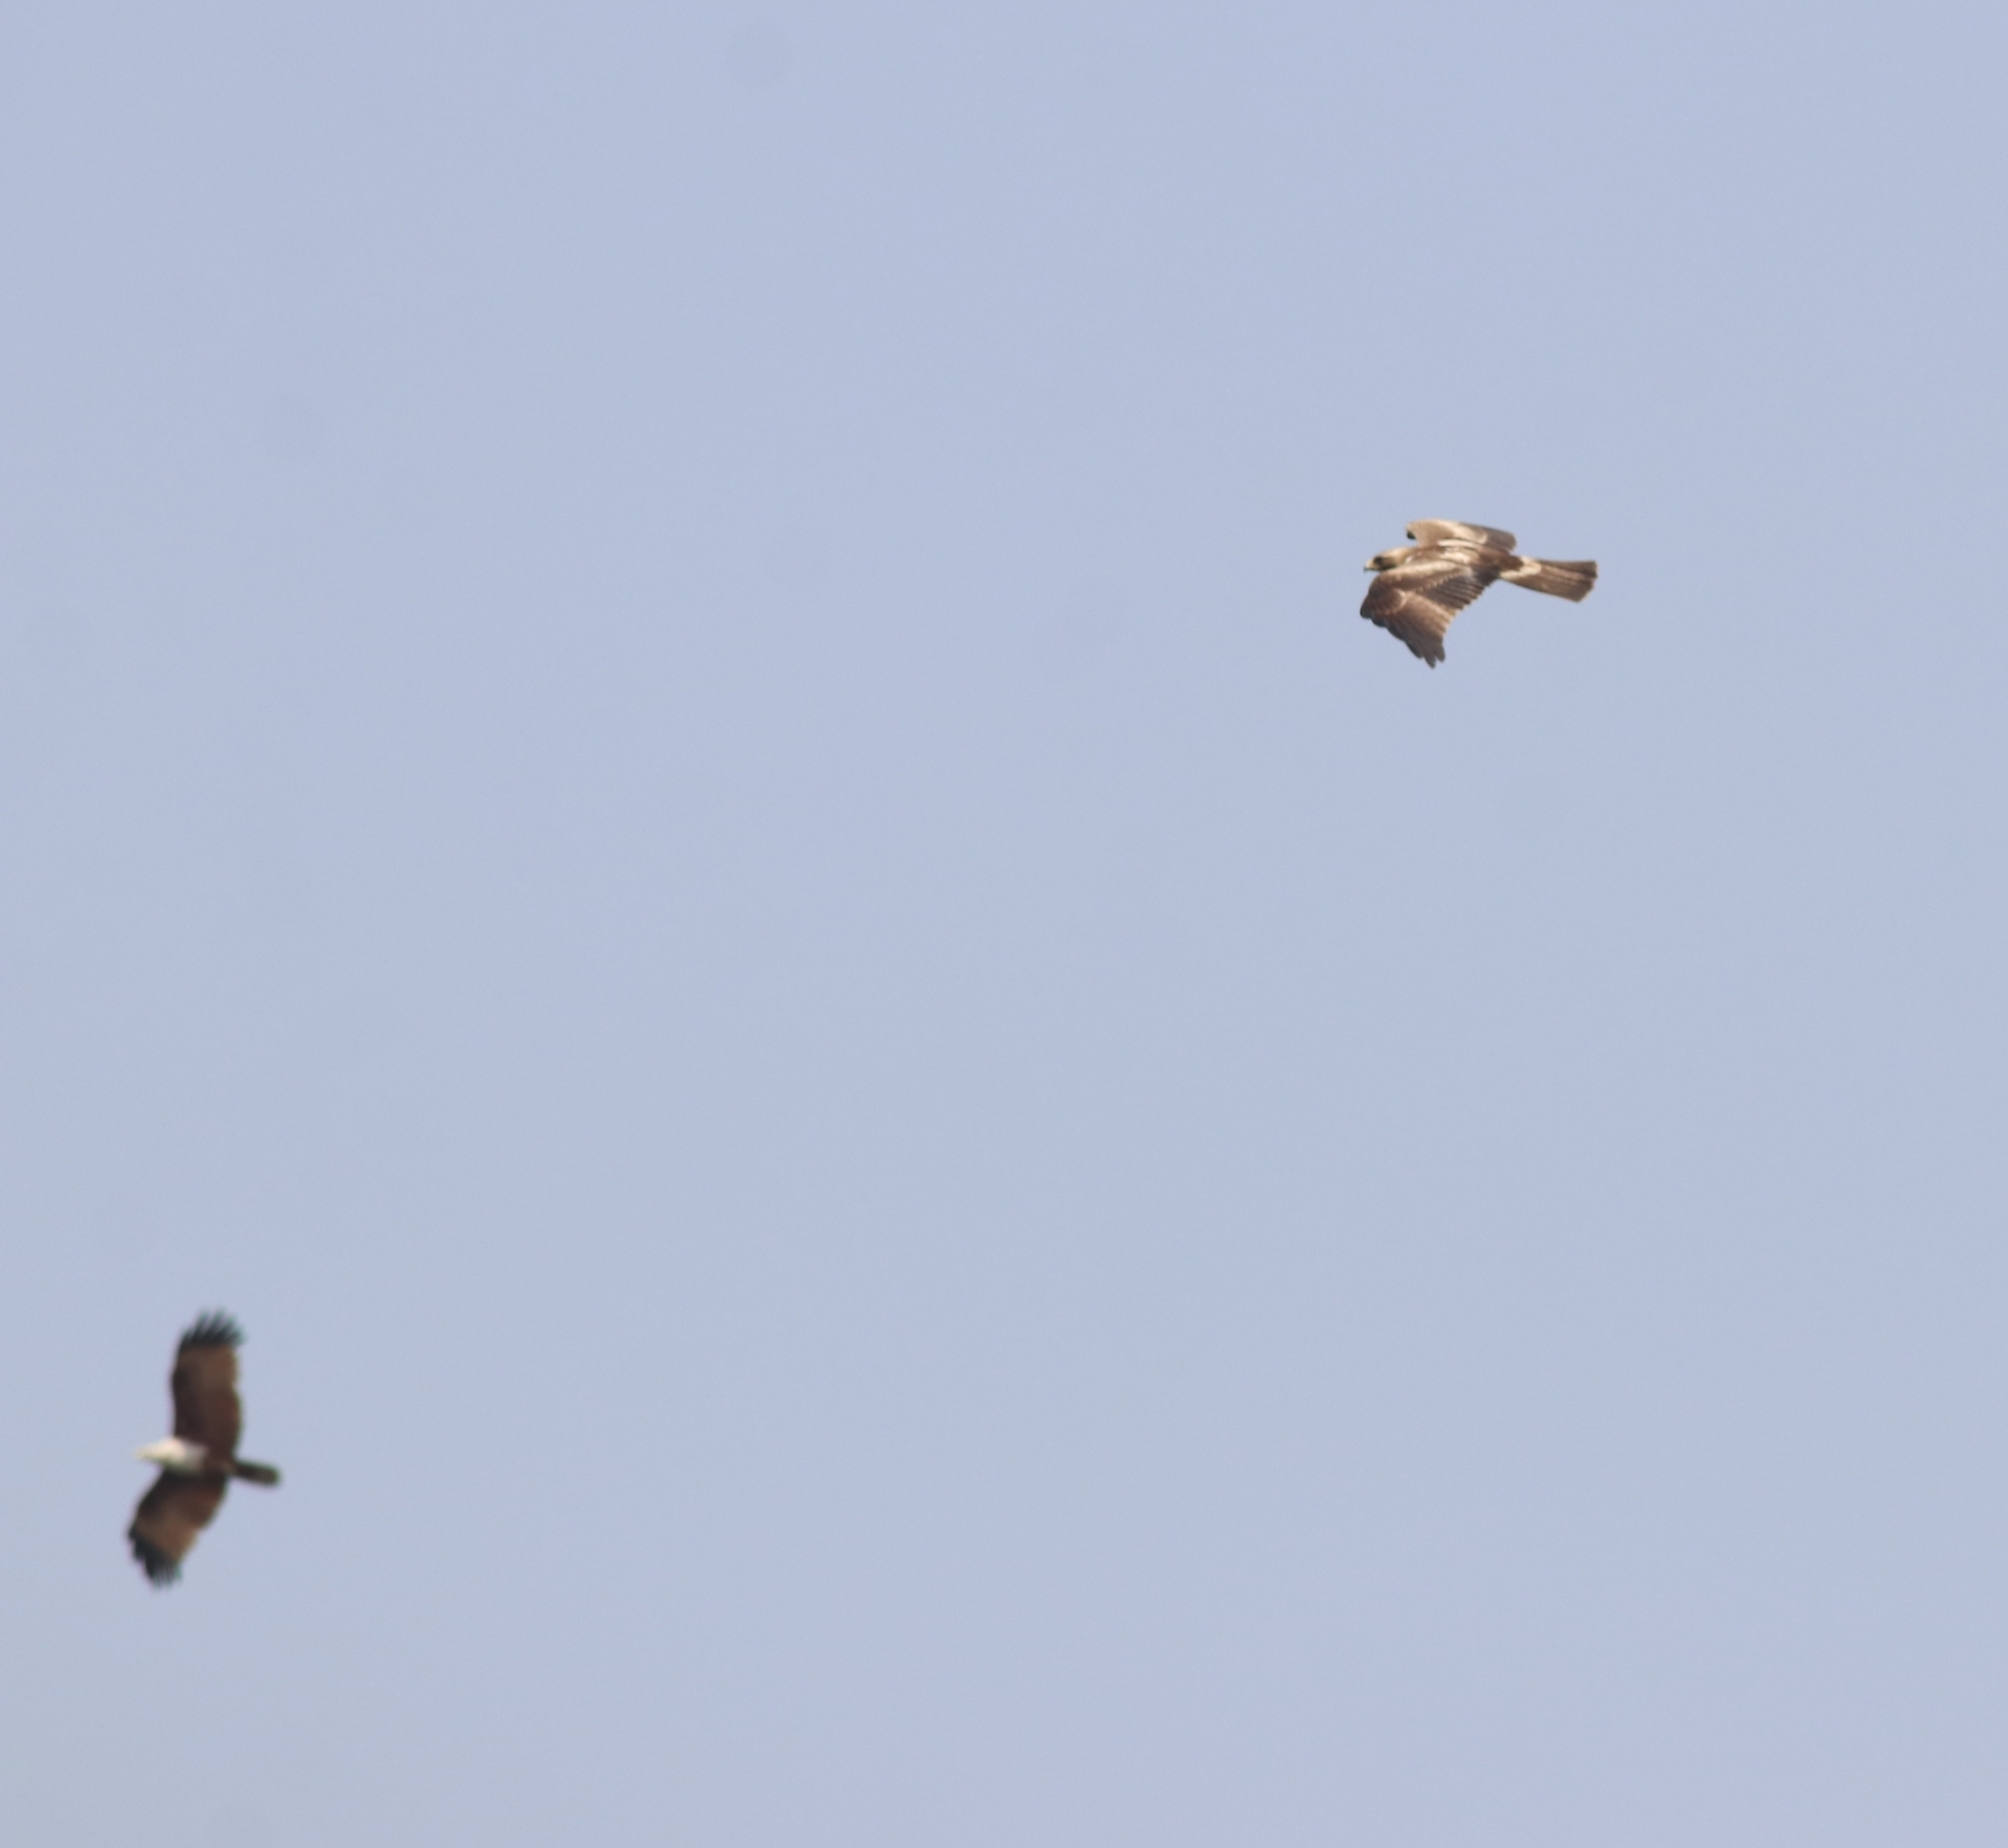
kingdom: Animalia
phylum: Chordata
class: Aves
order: Accipitriformes
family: Accipitridae
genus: Haliastur
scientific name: Haliastur indus
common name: Brahminy kite
